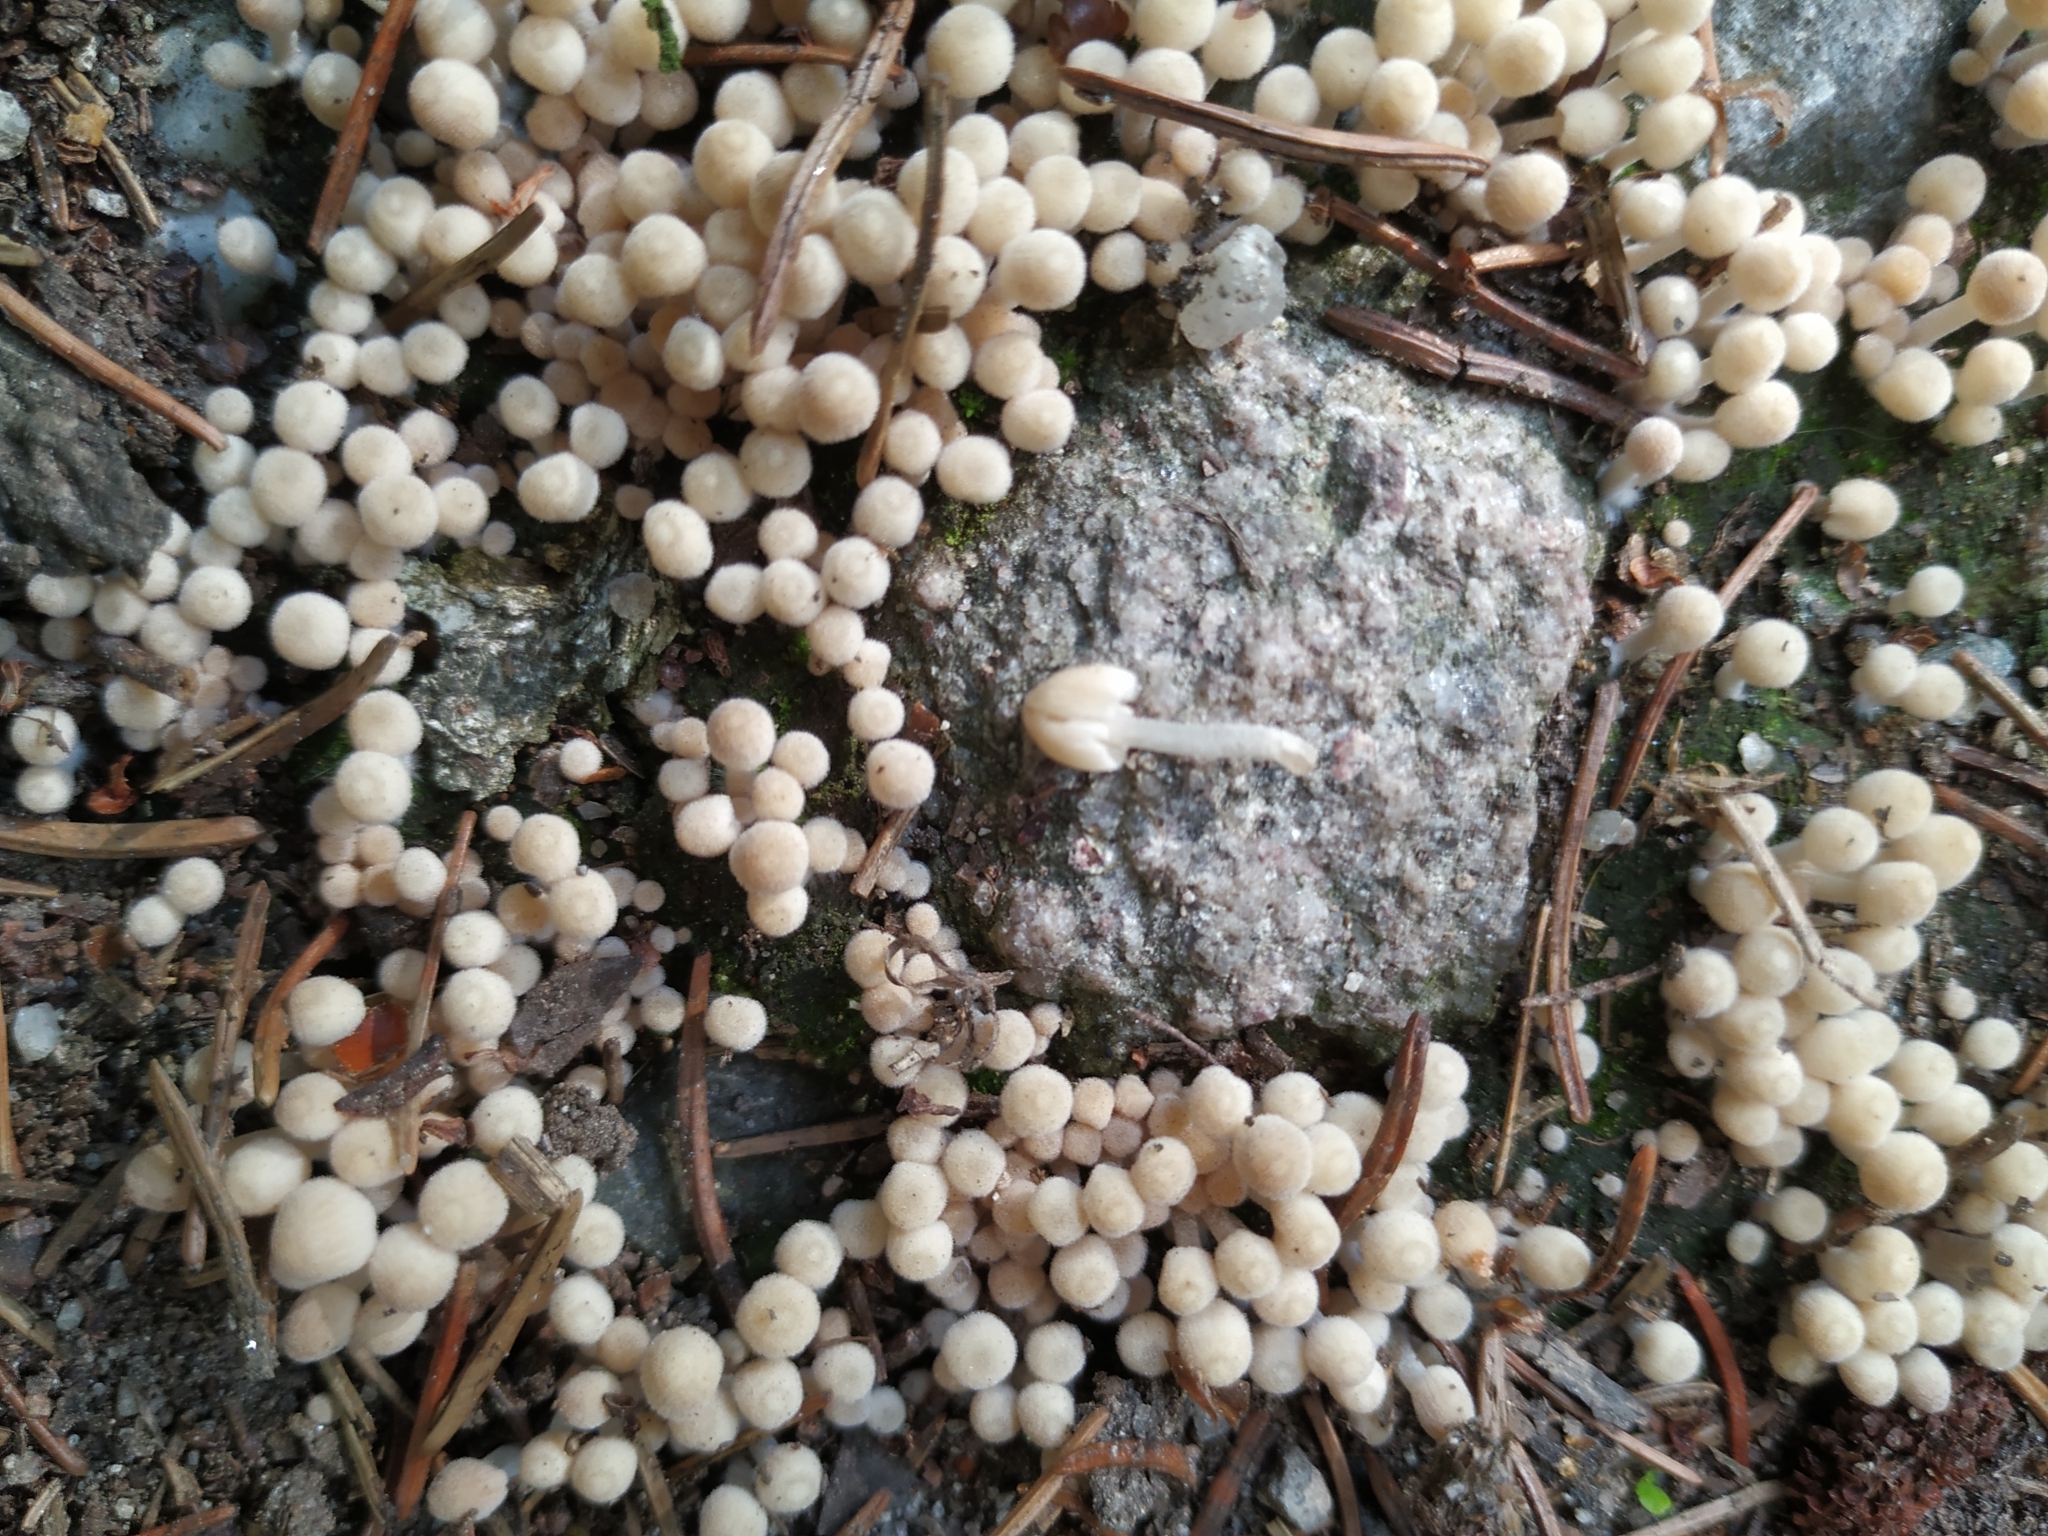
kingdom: Fungi
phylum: Basidiomycota
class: Agaricomycetes
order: Agaricales
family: Psathyrellaceae
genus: Coprinellus
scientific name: Coprinellus disseminatus
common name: Fairies' bonnets
